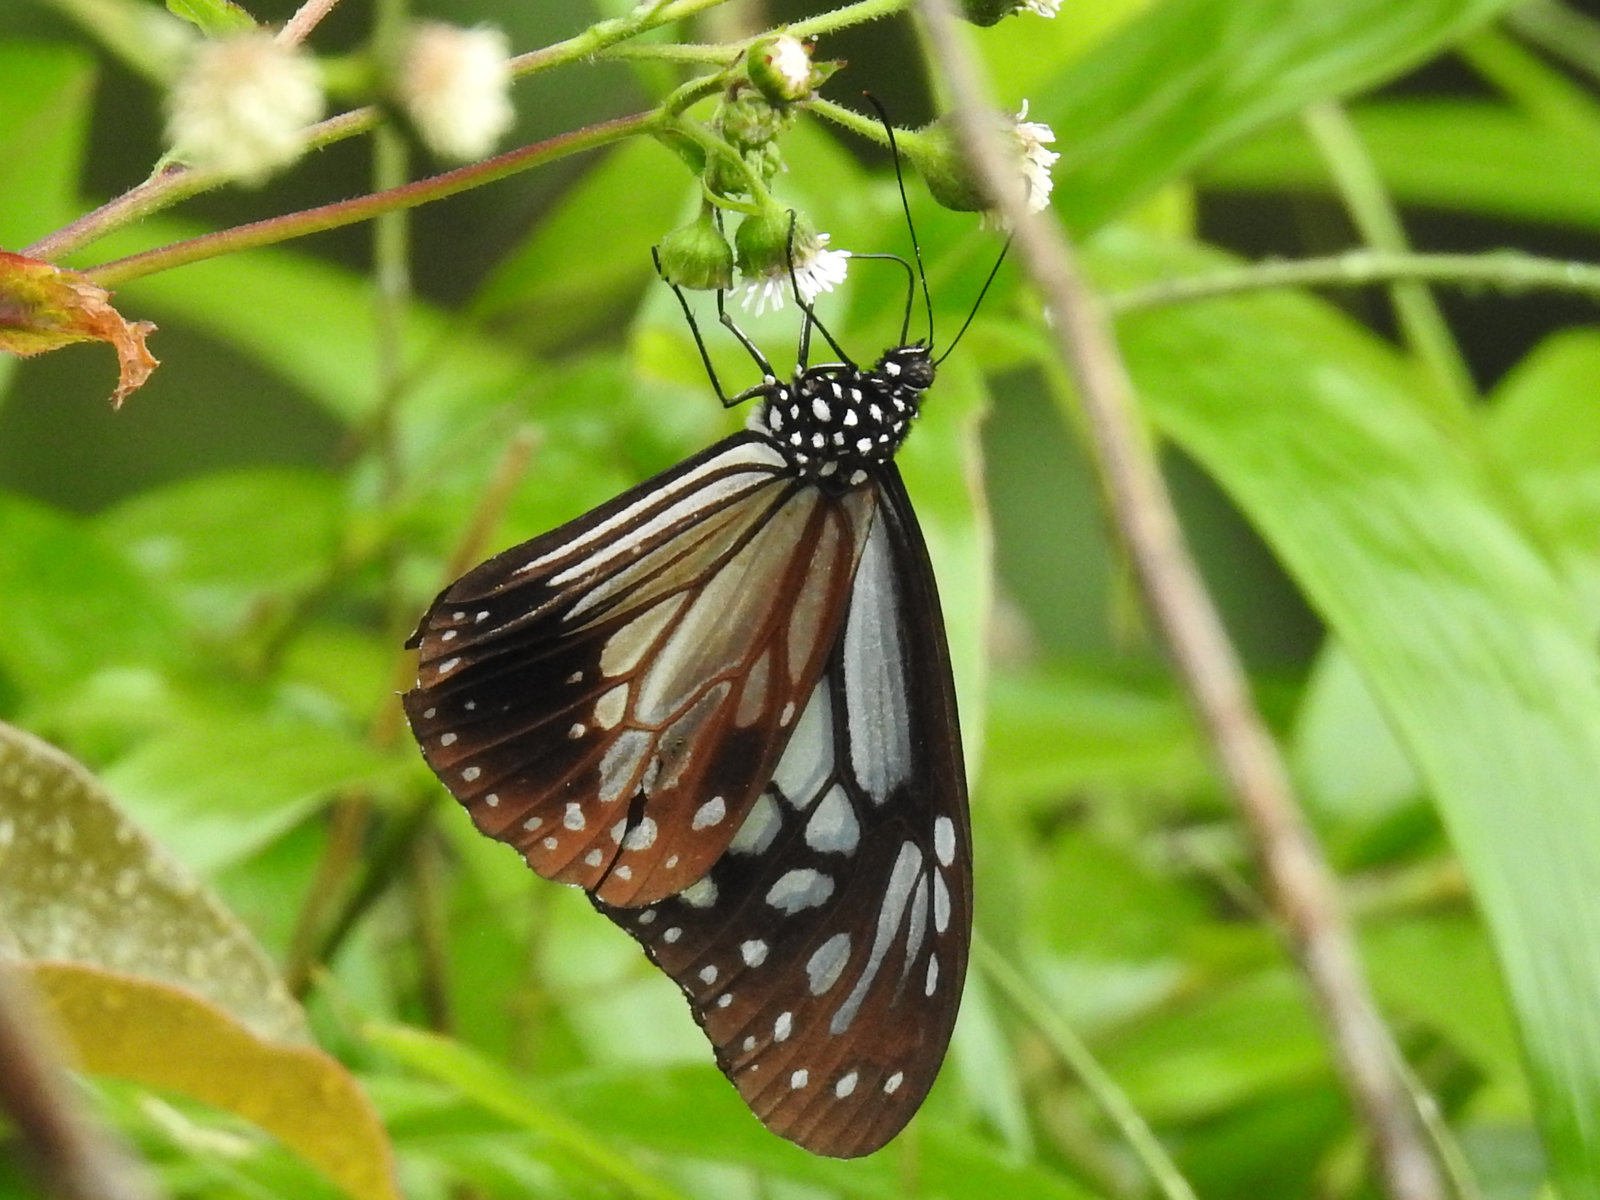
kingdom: Animalia
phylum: Arthropoda
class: Insecta
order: Lepidoptera
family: Nymphalidae
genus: Parantica
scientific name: Parantica melaneus
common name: Chocolate tiger
